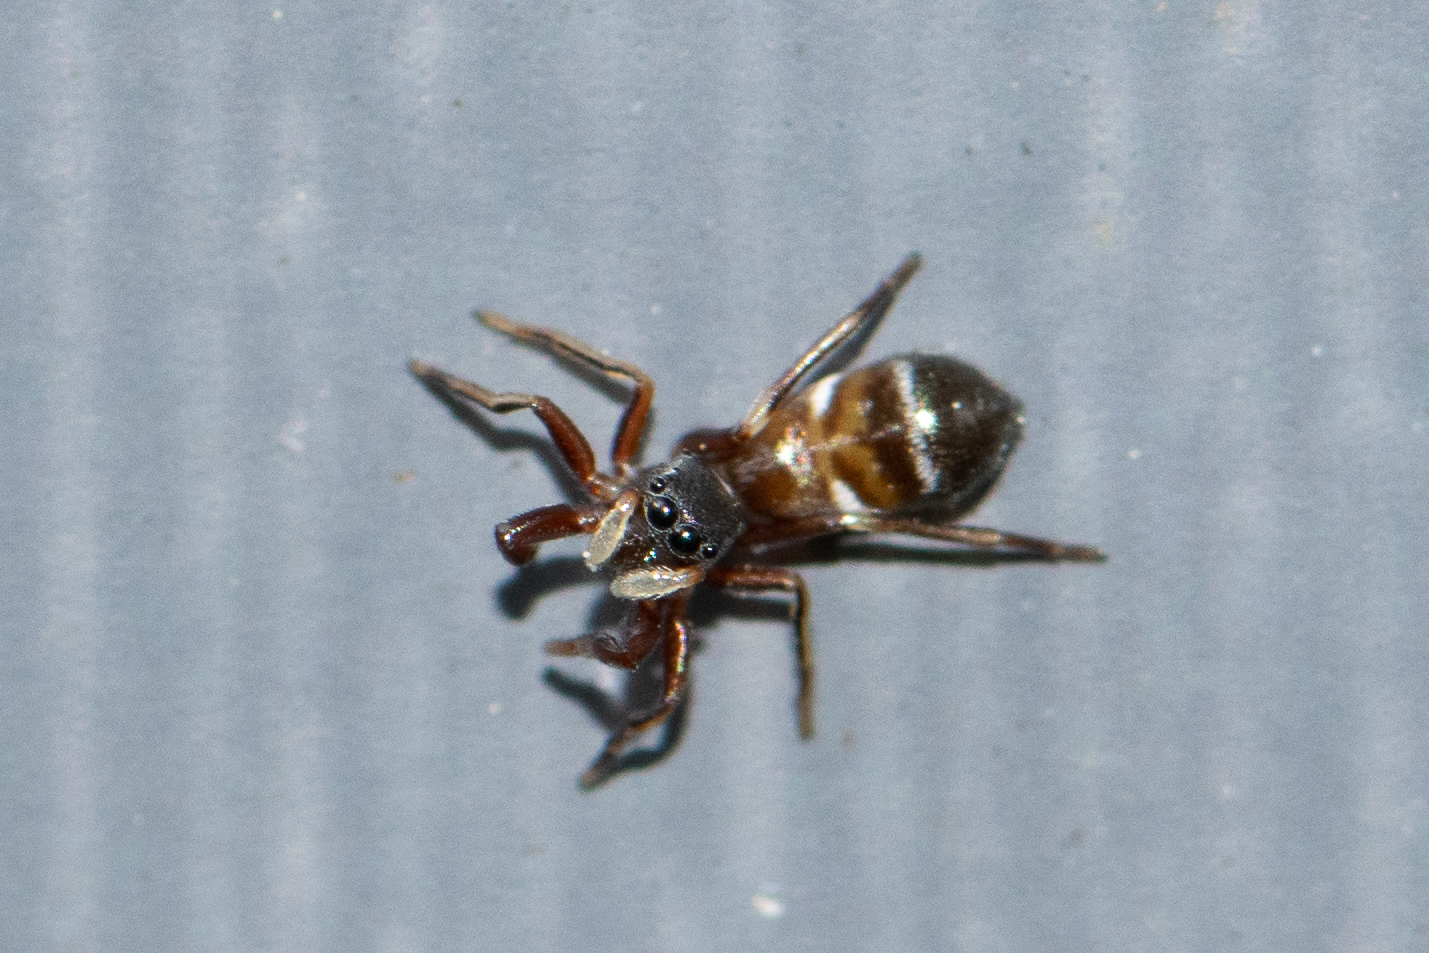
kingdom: Animalia
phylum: Arthropoda
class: Arachnida
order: Araneae
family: Salticidae
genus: Synageles
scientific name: Synageles venator
